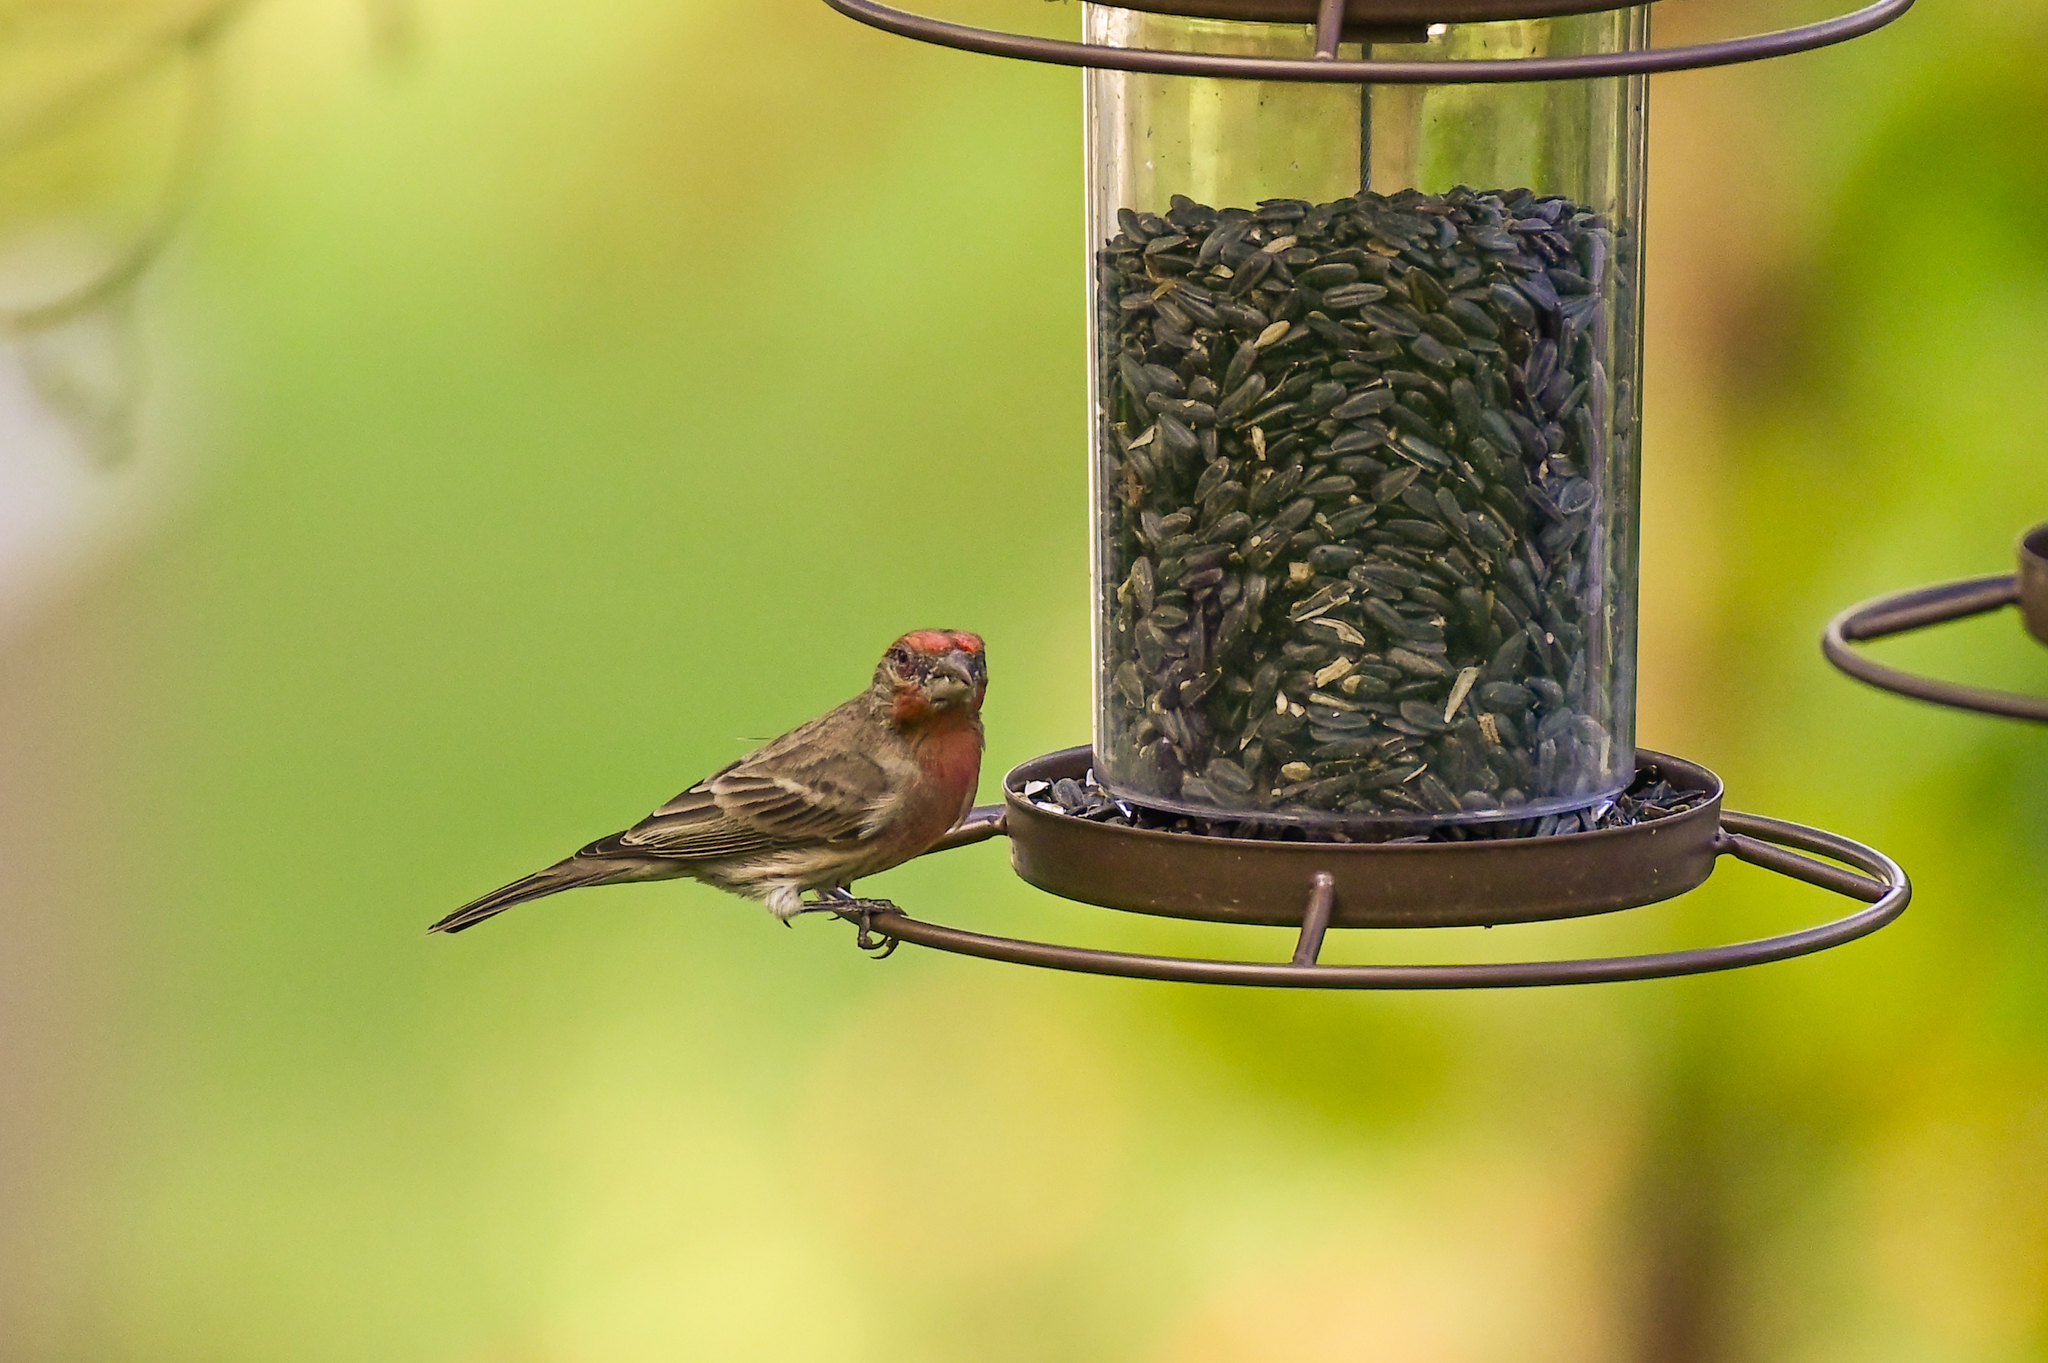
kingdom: Animalia
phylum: Chordata
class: Aves
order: Passeriformes
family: Fringillidae
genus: Haemorhous
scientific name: Haemorhous mexicanus
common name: House finch
